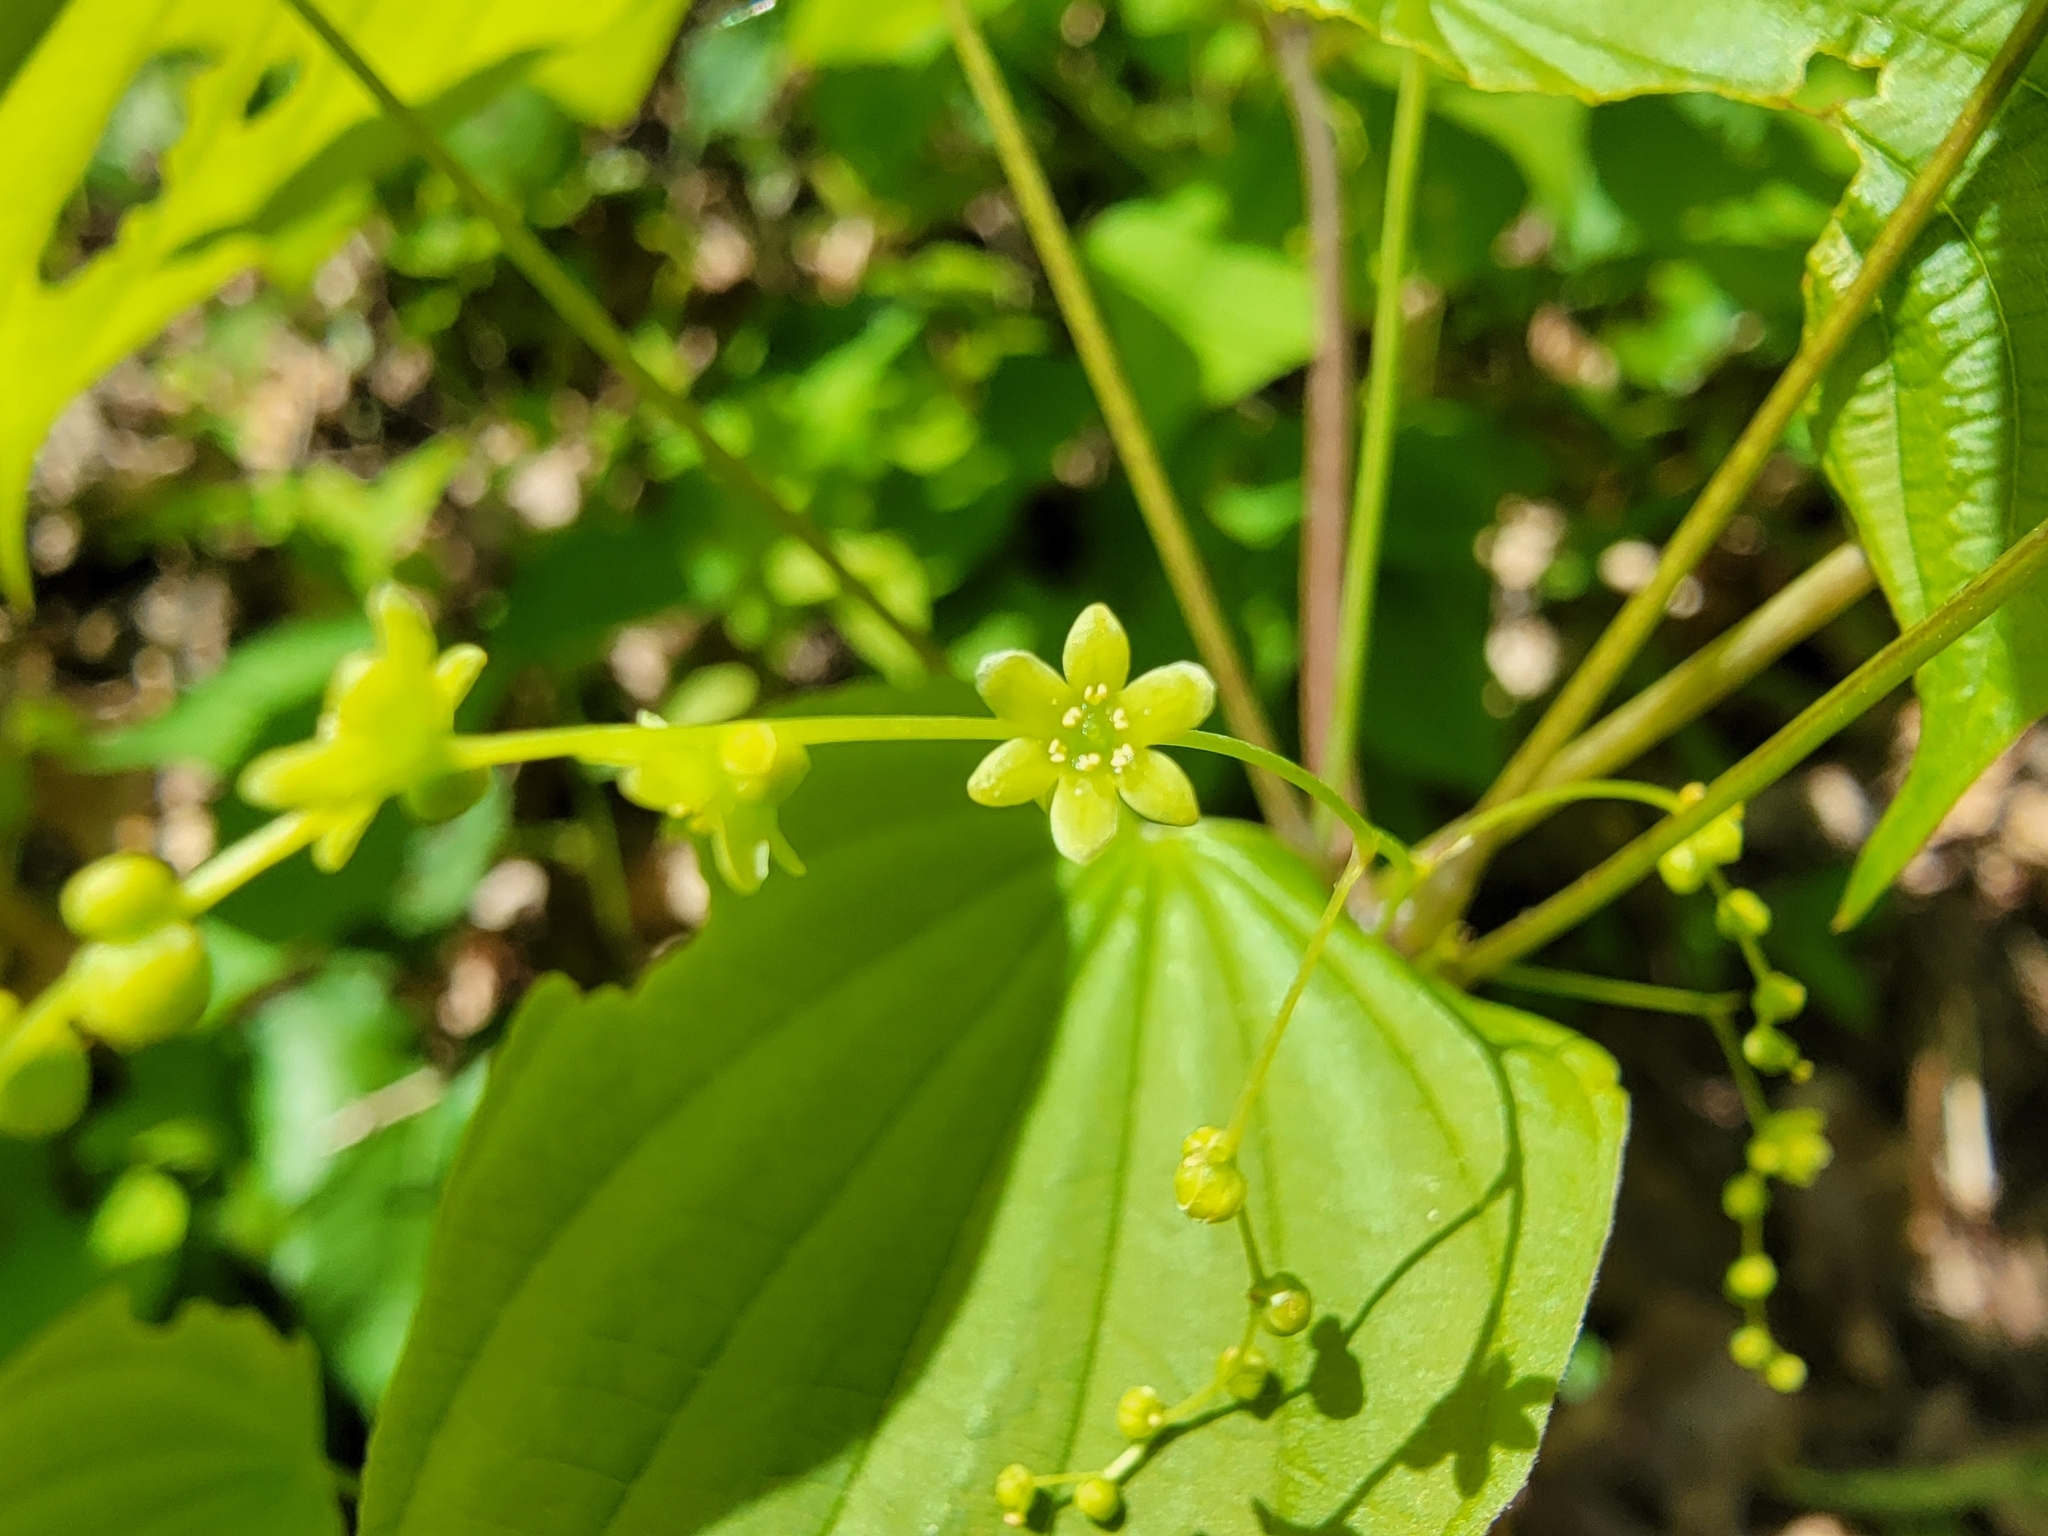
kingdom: Plantae
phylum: Tracheophyta
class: Liliopsida
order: Dioscoreales
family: Dioscoreaceae
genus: Dioscorea
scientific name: Dioscorea villosa
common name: Wild yam
